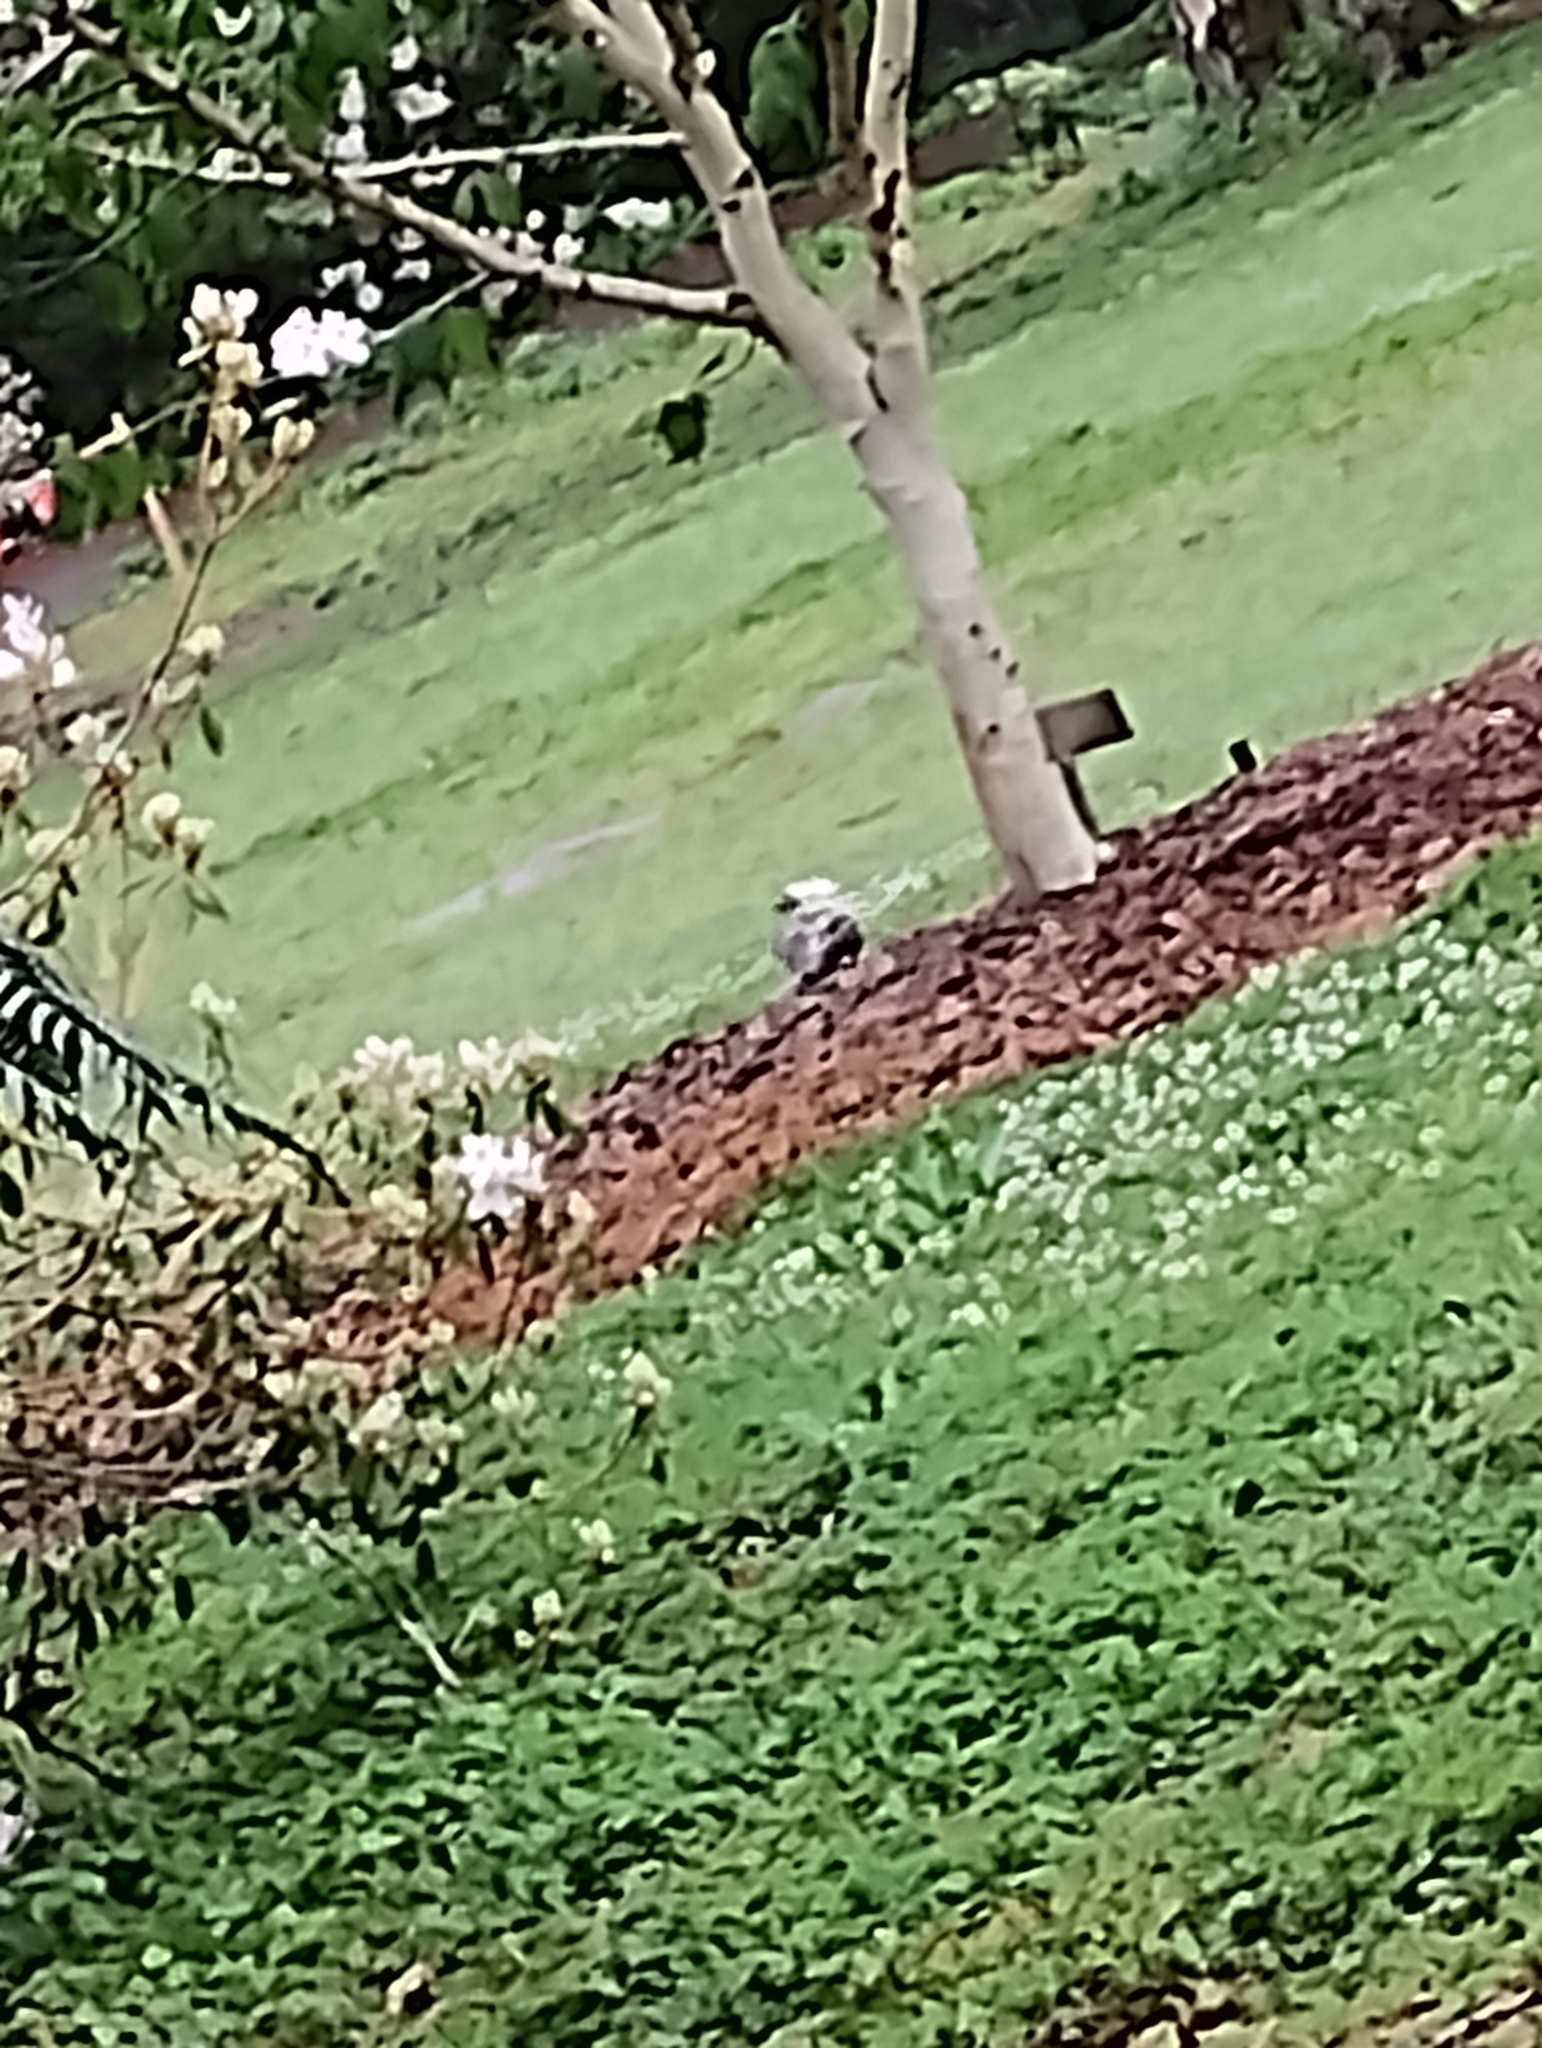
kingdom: Animalia
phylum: Chordata
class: Aves
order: Coraciiformes
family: Alcedinidae
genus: Dacelo
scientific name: Dacelo novaeguineae
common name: Laughing kookaburra
